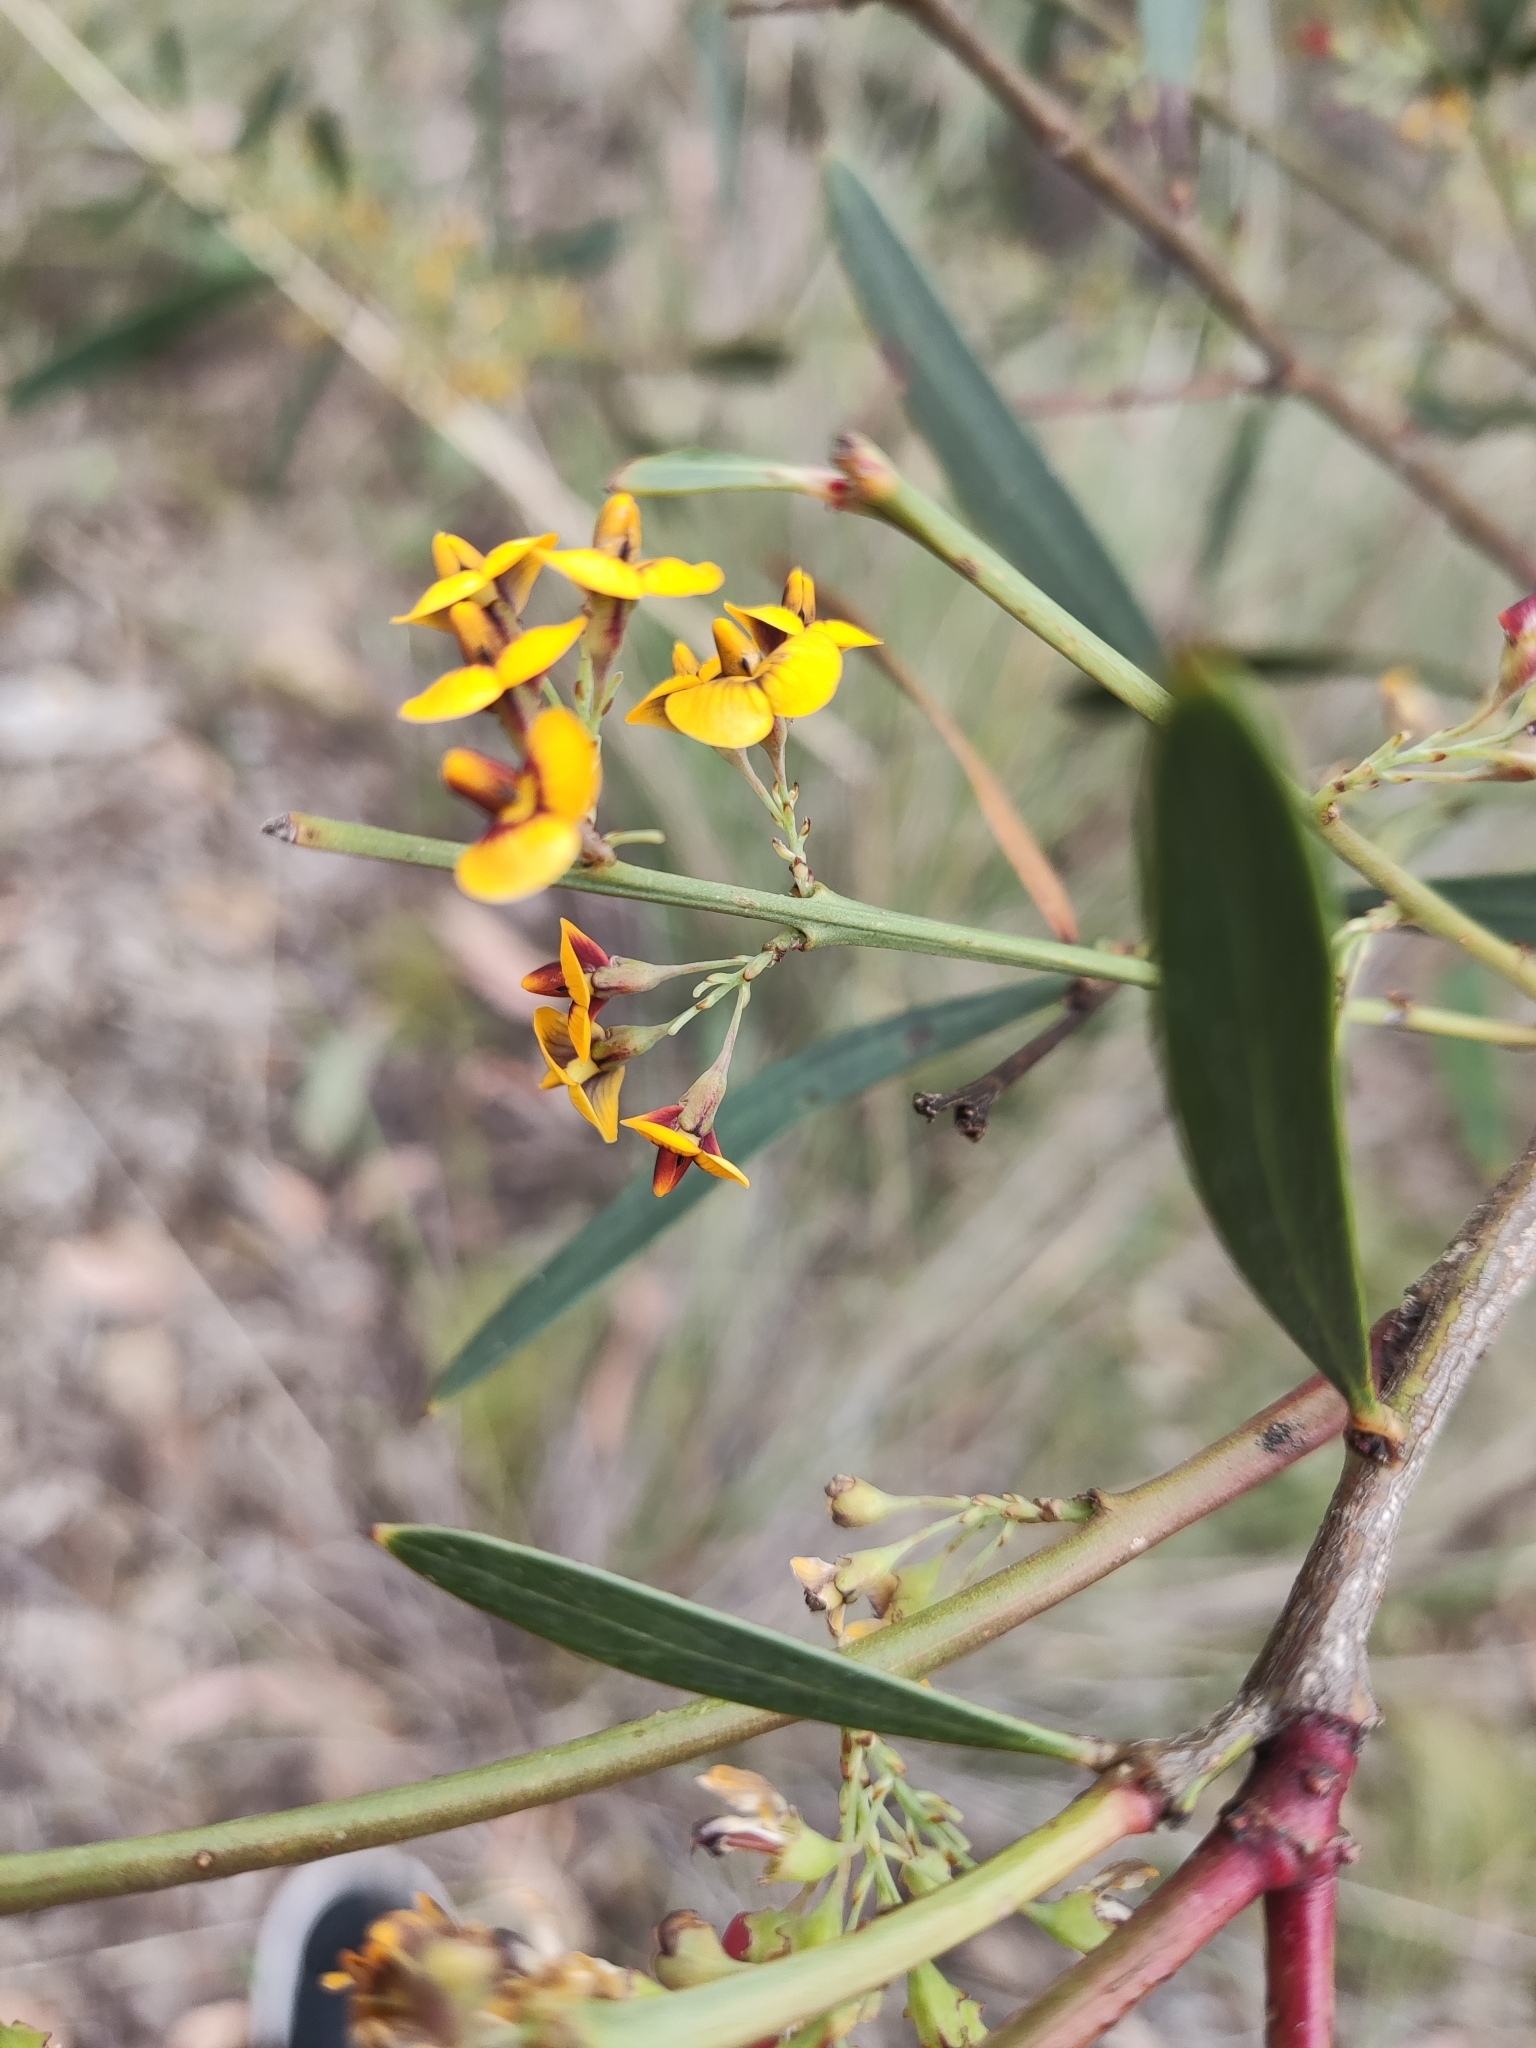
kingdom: Plantae
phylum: Tracheophyta
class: Magnoliopsida
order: Fabales
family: Fabaceae
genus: Daviesia
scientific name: Daviesia mimosoides
